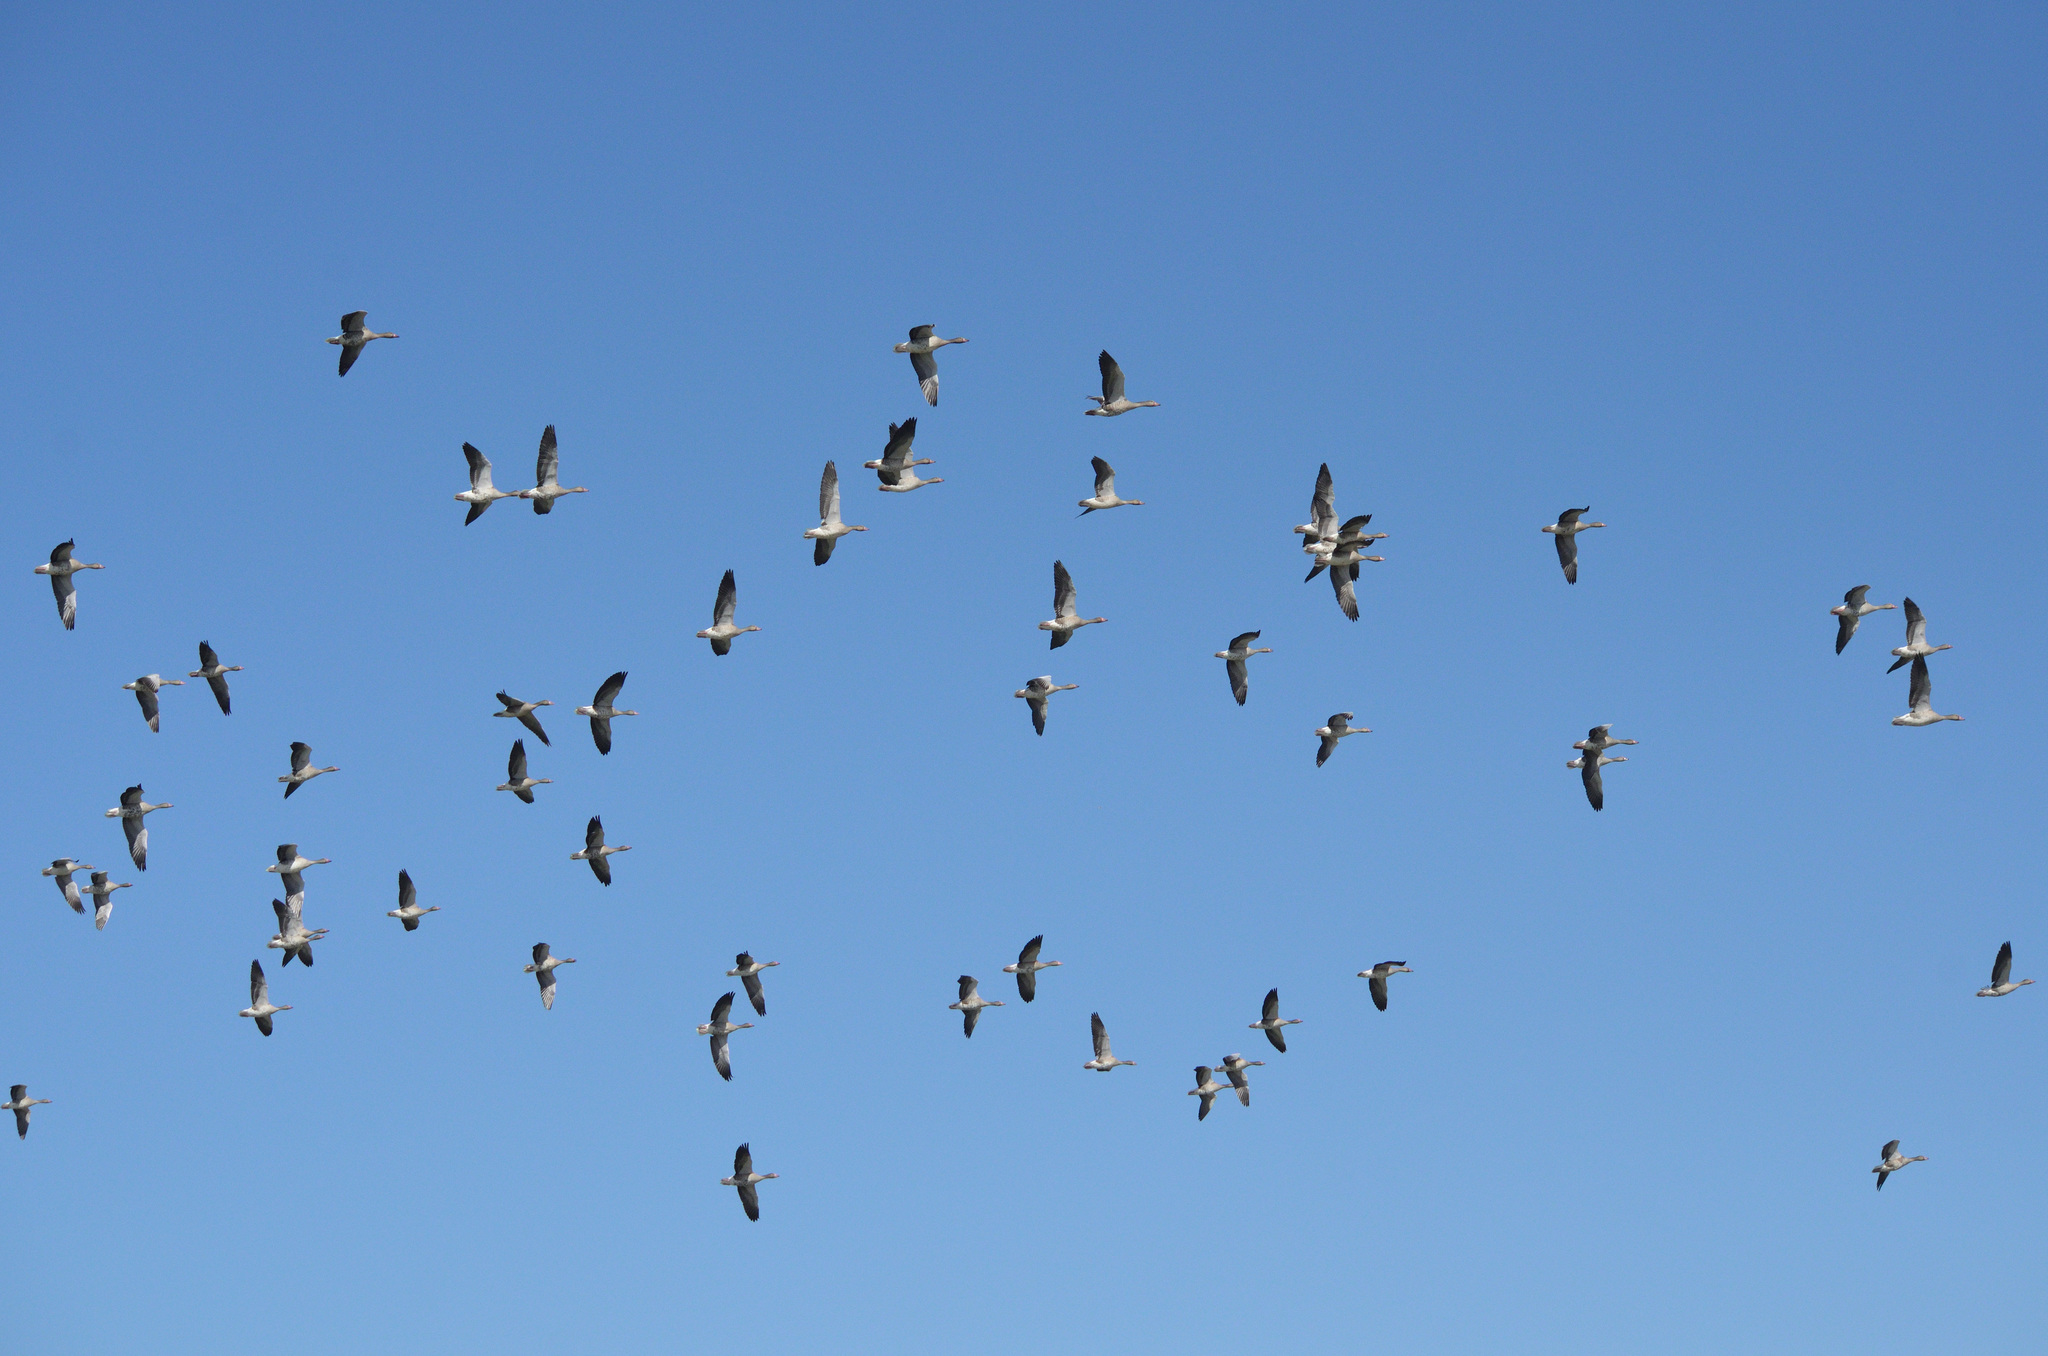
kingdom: Animalia
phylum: Chordata
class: Aves
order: Anseriformes
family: Anatidae
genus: Anser
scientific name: Anser anser
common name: Greylag goose
